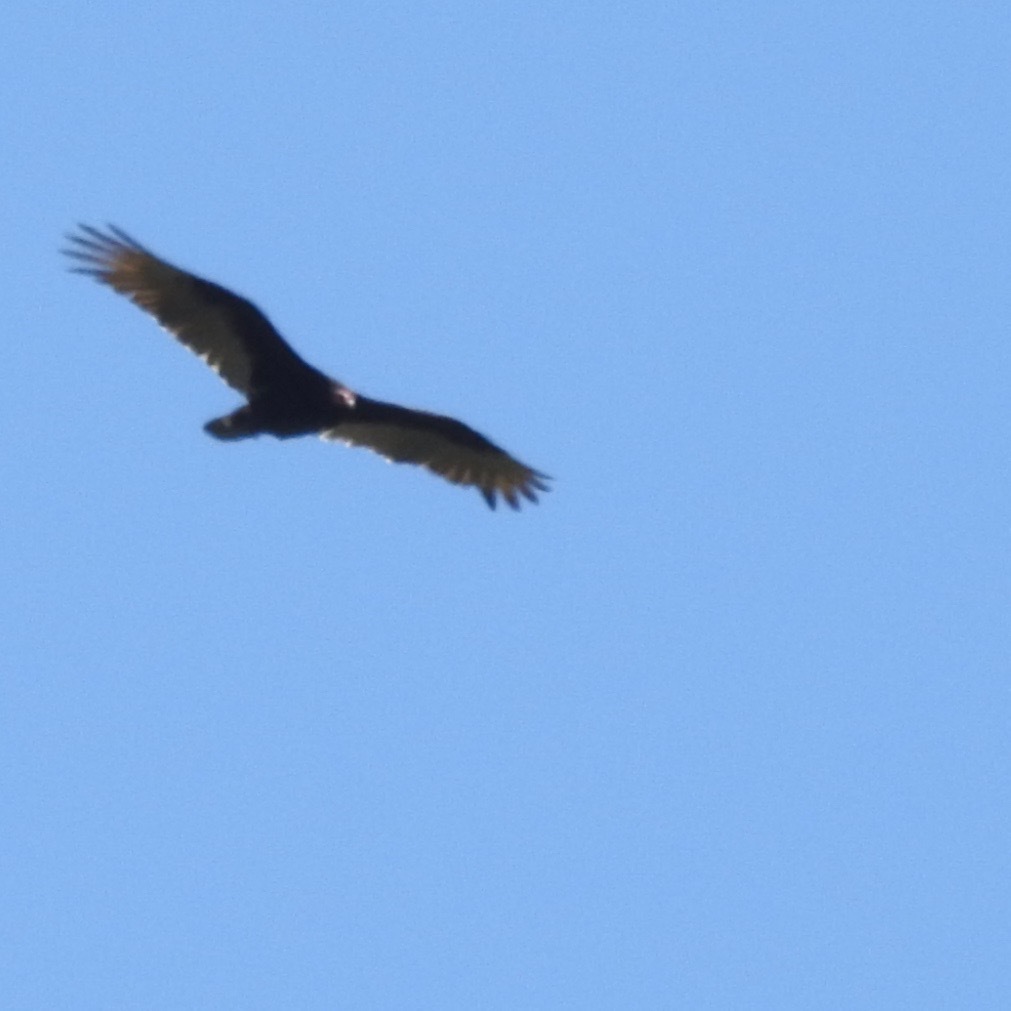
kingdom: Animalia
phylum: Chordata
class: Aves
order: Accipitriformes
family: Cathartidae
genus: Cathartes
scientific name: Cathartes aura
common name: Turkey vulture
